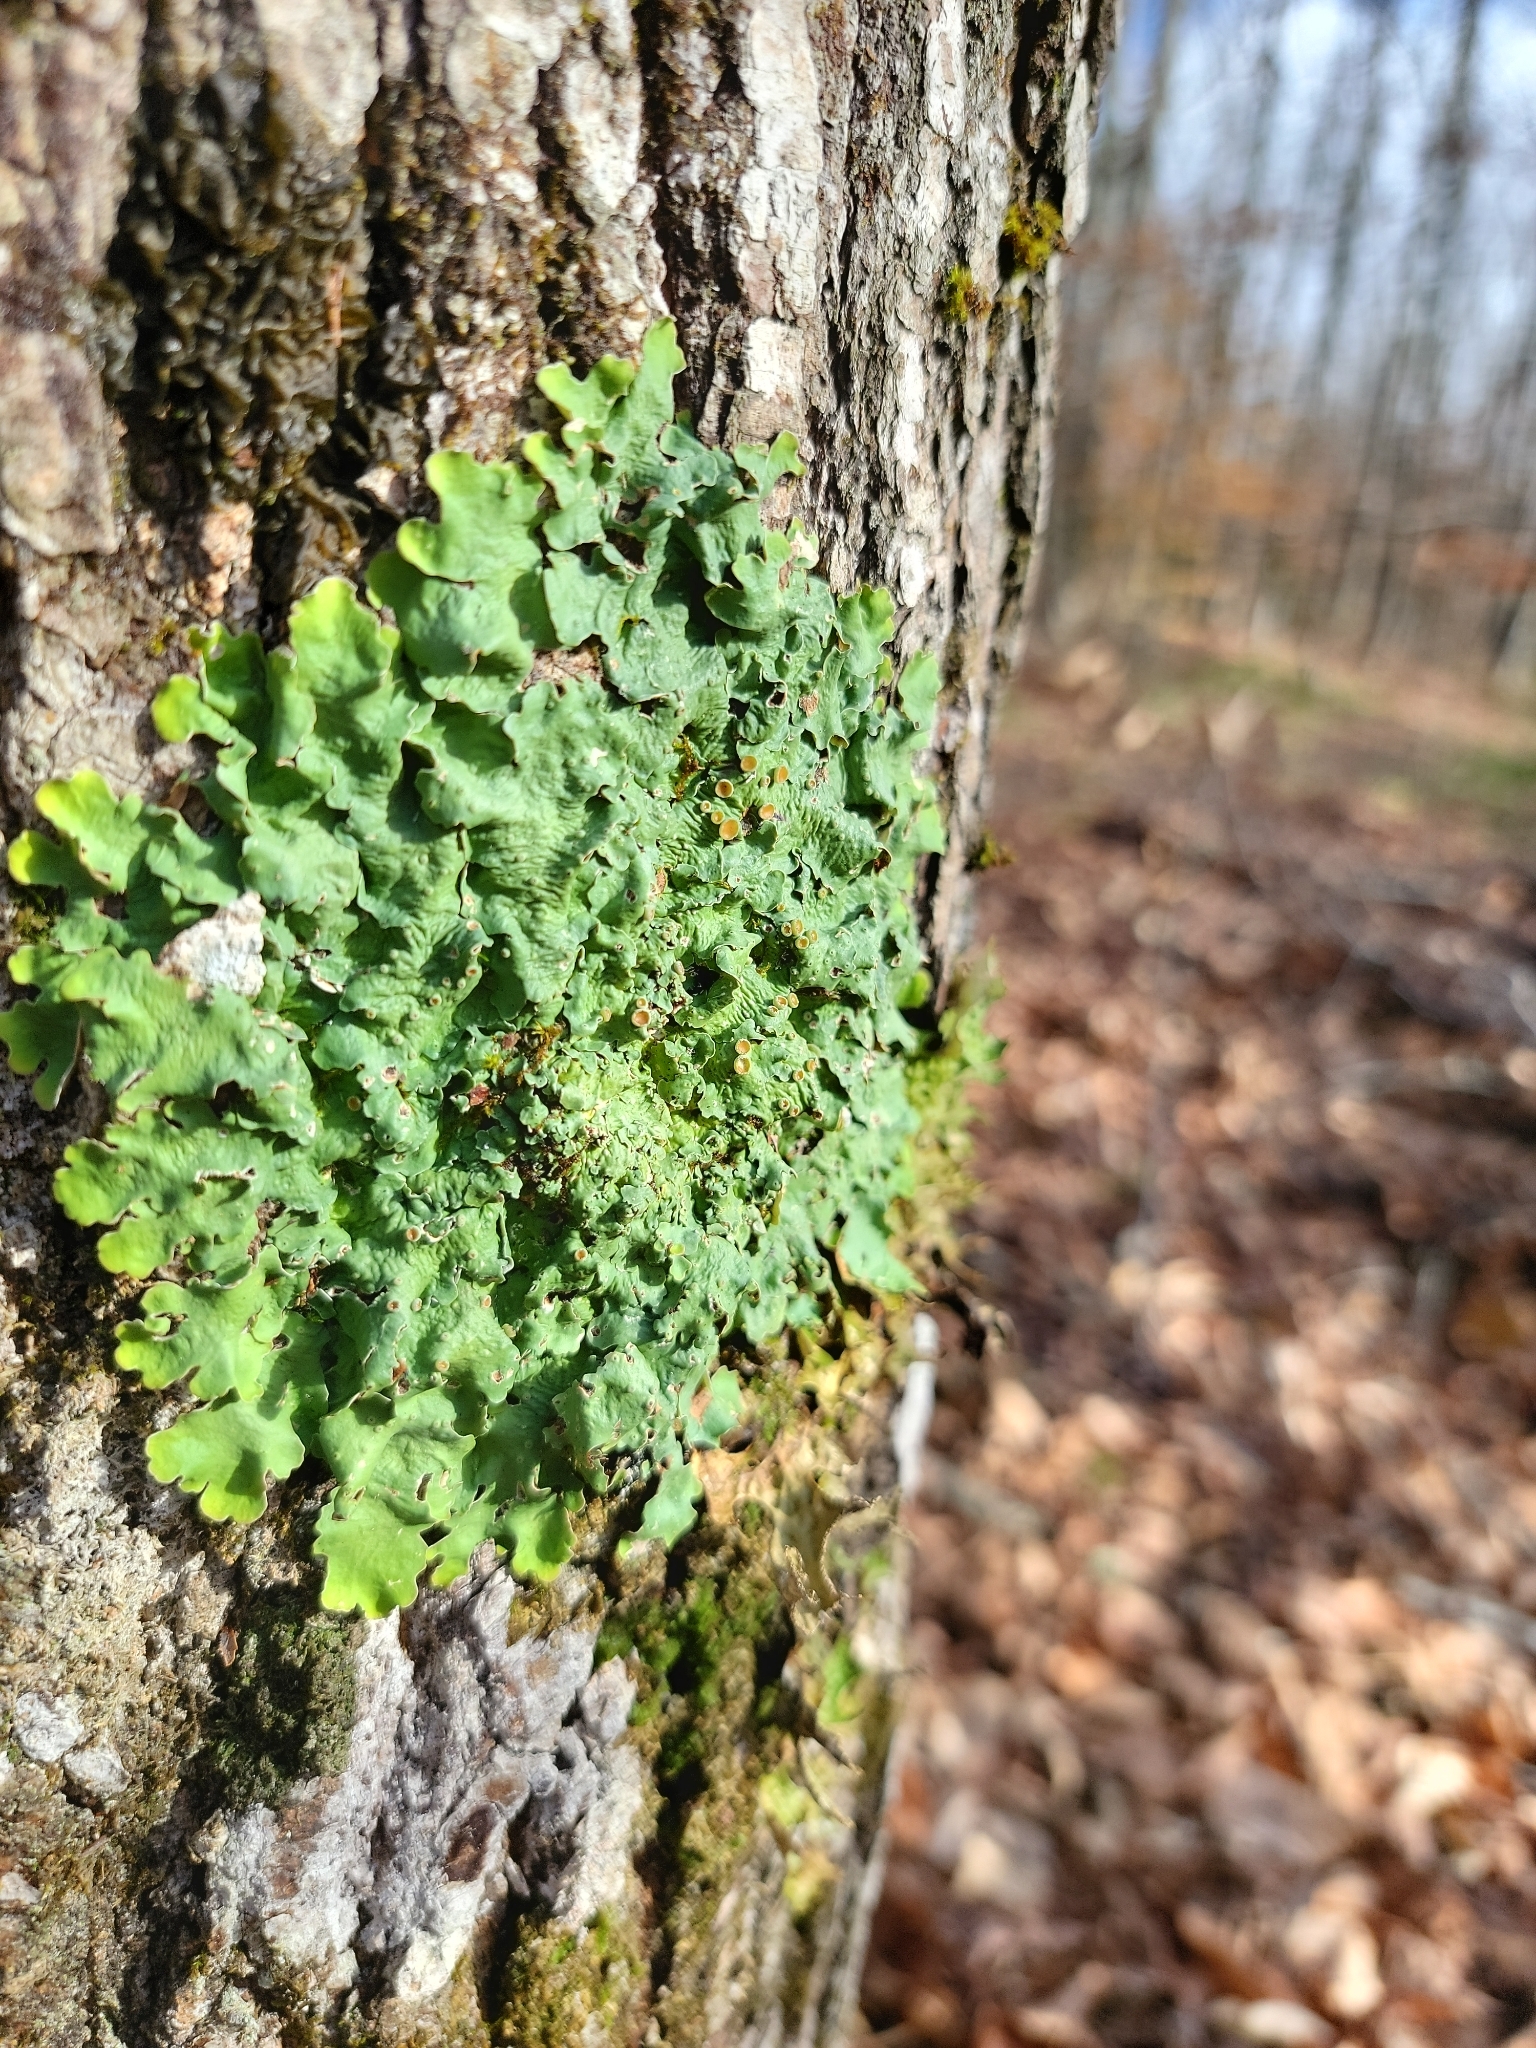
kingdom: Fungi
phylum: Ascomycota
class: Lecanoromycetes
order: Peltigerales
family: Lobariaceae
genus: Ricasolia
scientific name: Ricasolia quercizans
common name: Smooth lungwort
